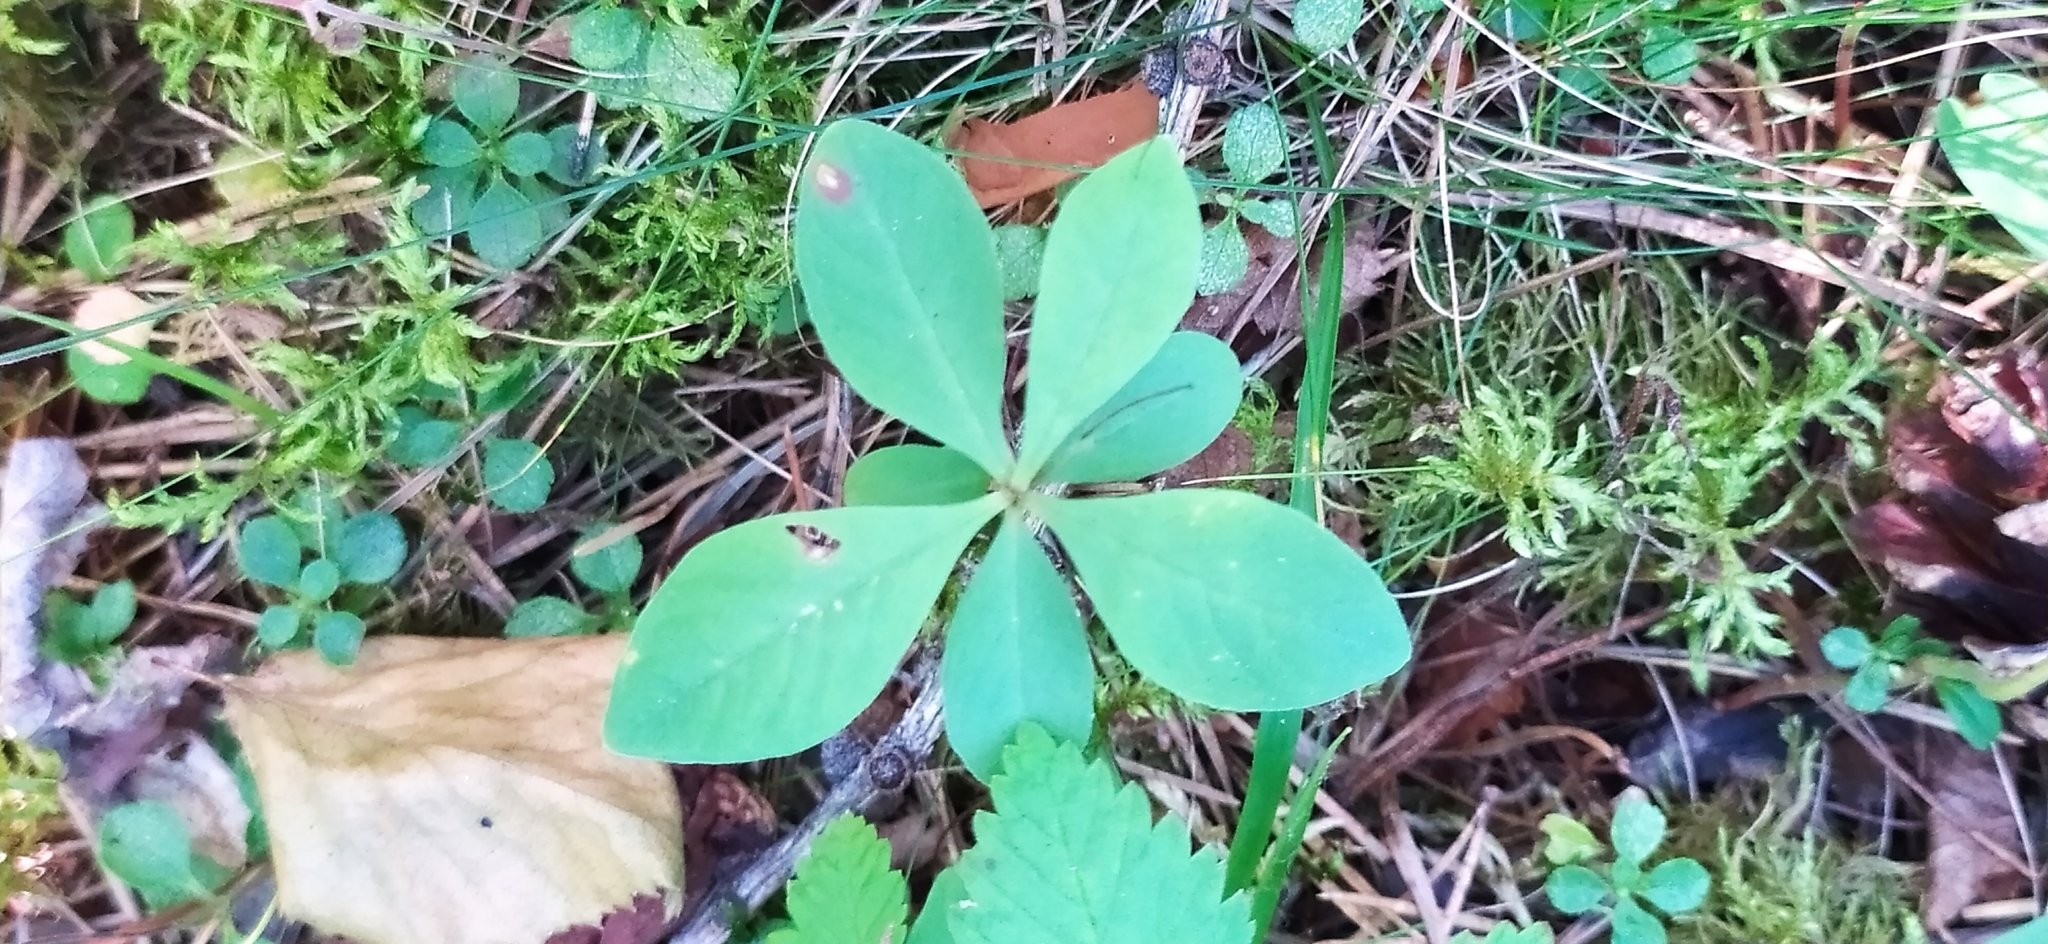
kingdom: Plantae
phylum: Tracheophyta
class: Magnoliopsida
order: Ericales
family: Primulaceae
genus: Lysimachia
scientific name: Lysimachia europaea
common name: Arctic starflower
